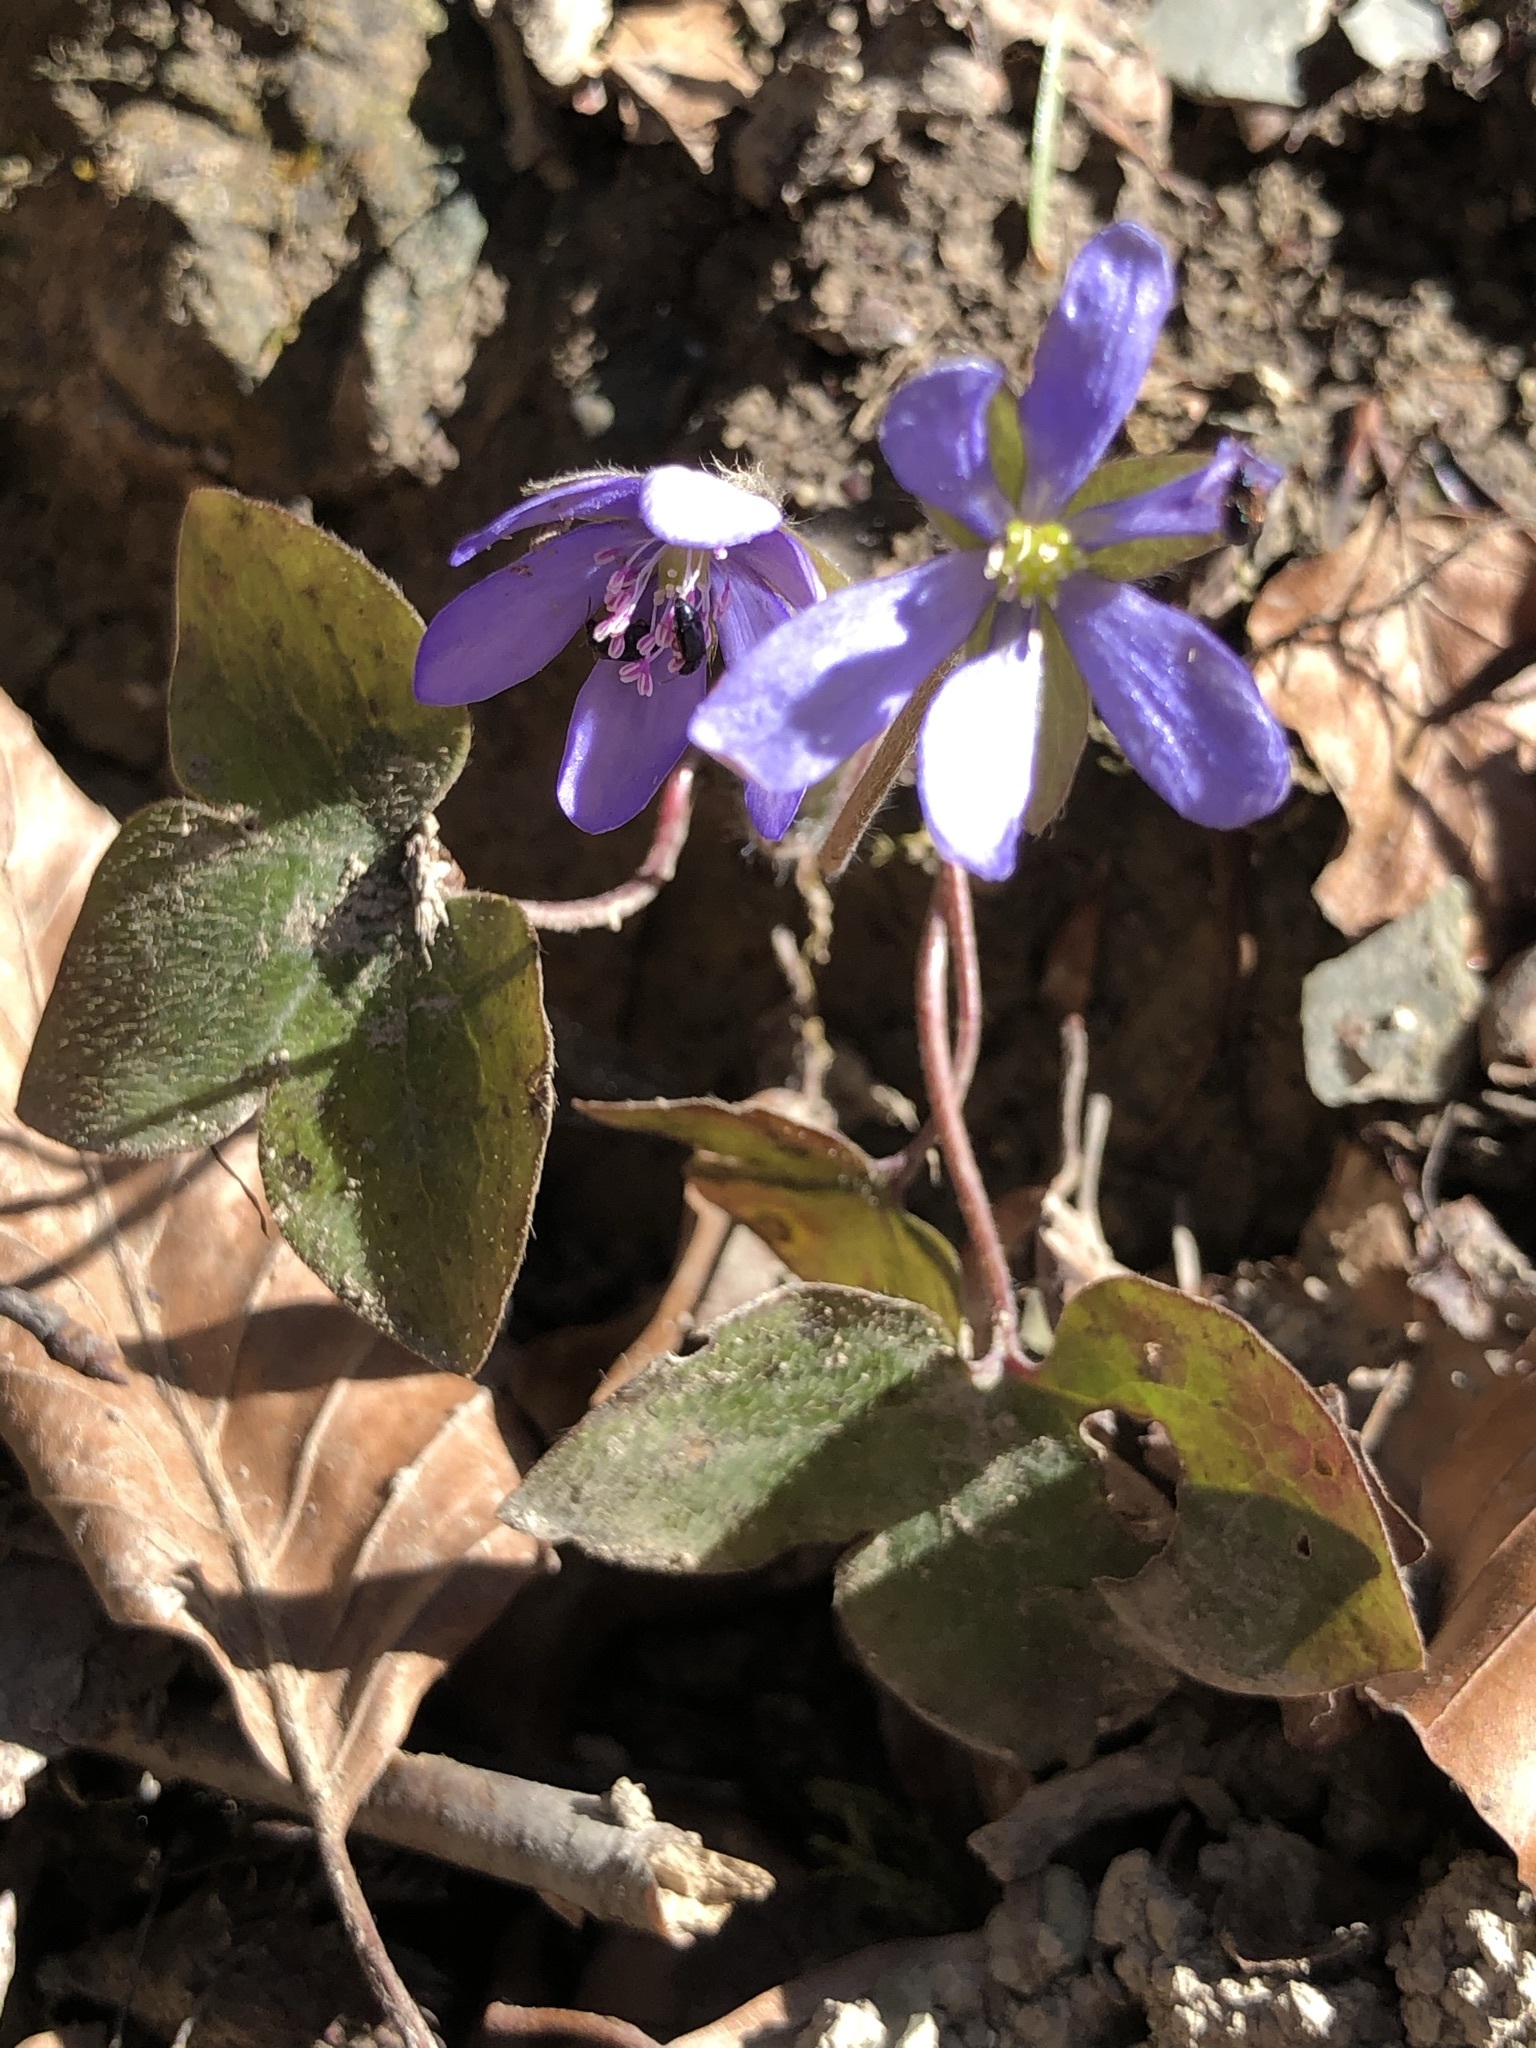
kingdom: Plantae
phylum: Tracheophyta
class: Magnoliopsida
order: Ranunculales
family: Ranunculaceae
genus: Hepatica
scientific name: Hepatica nobilis
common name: Liverleaf
